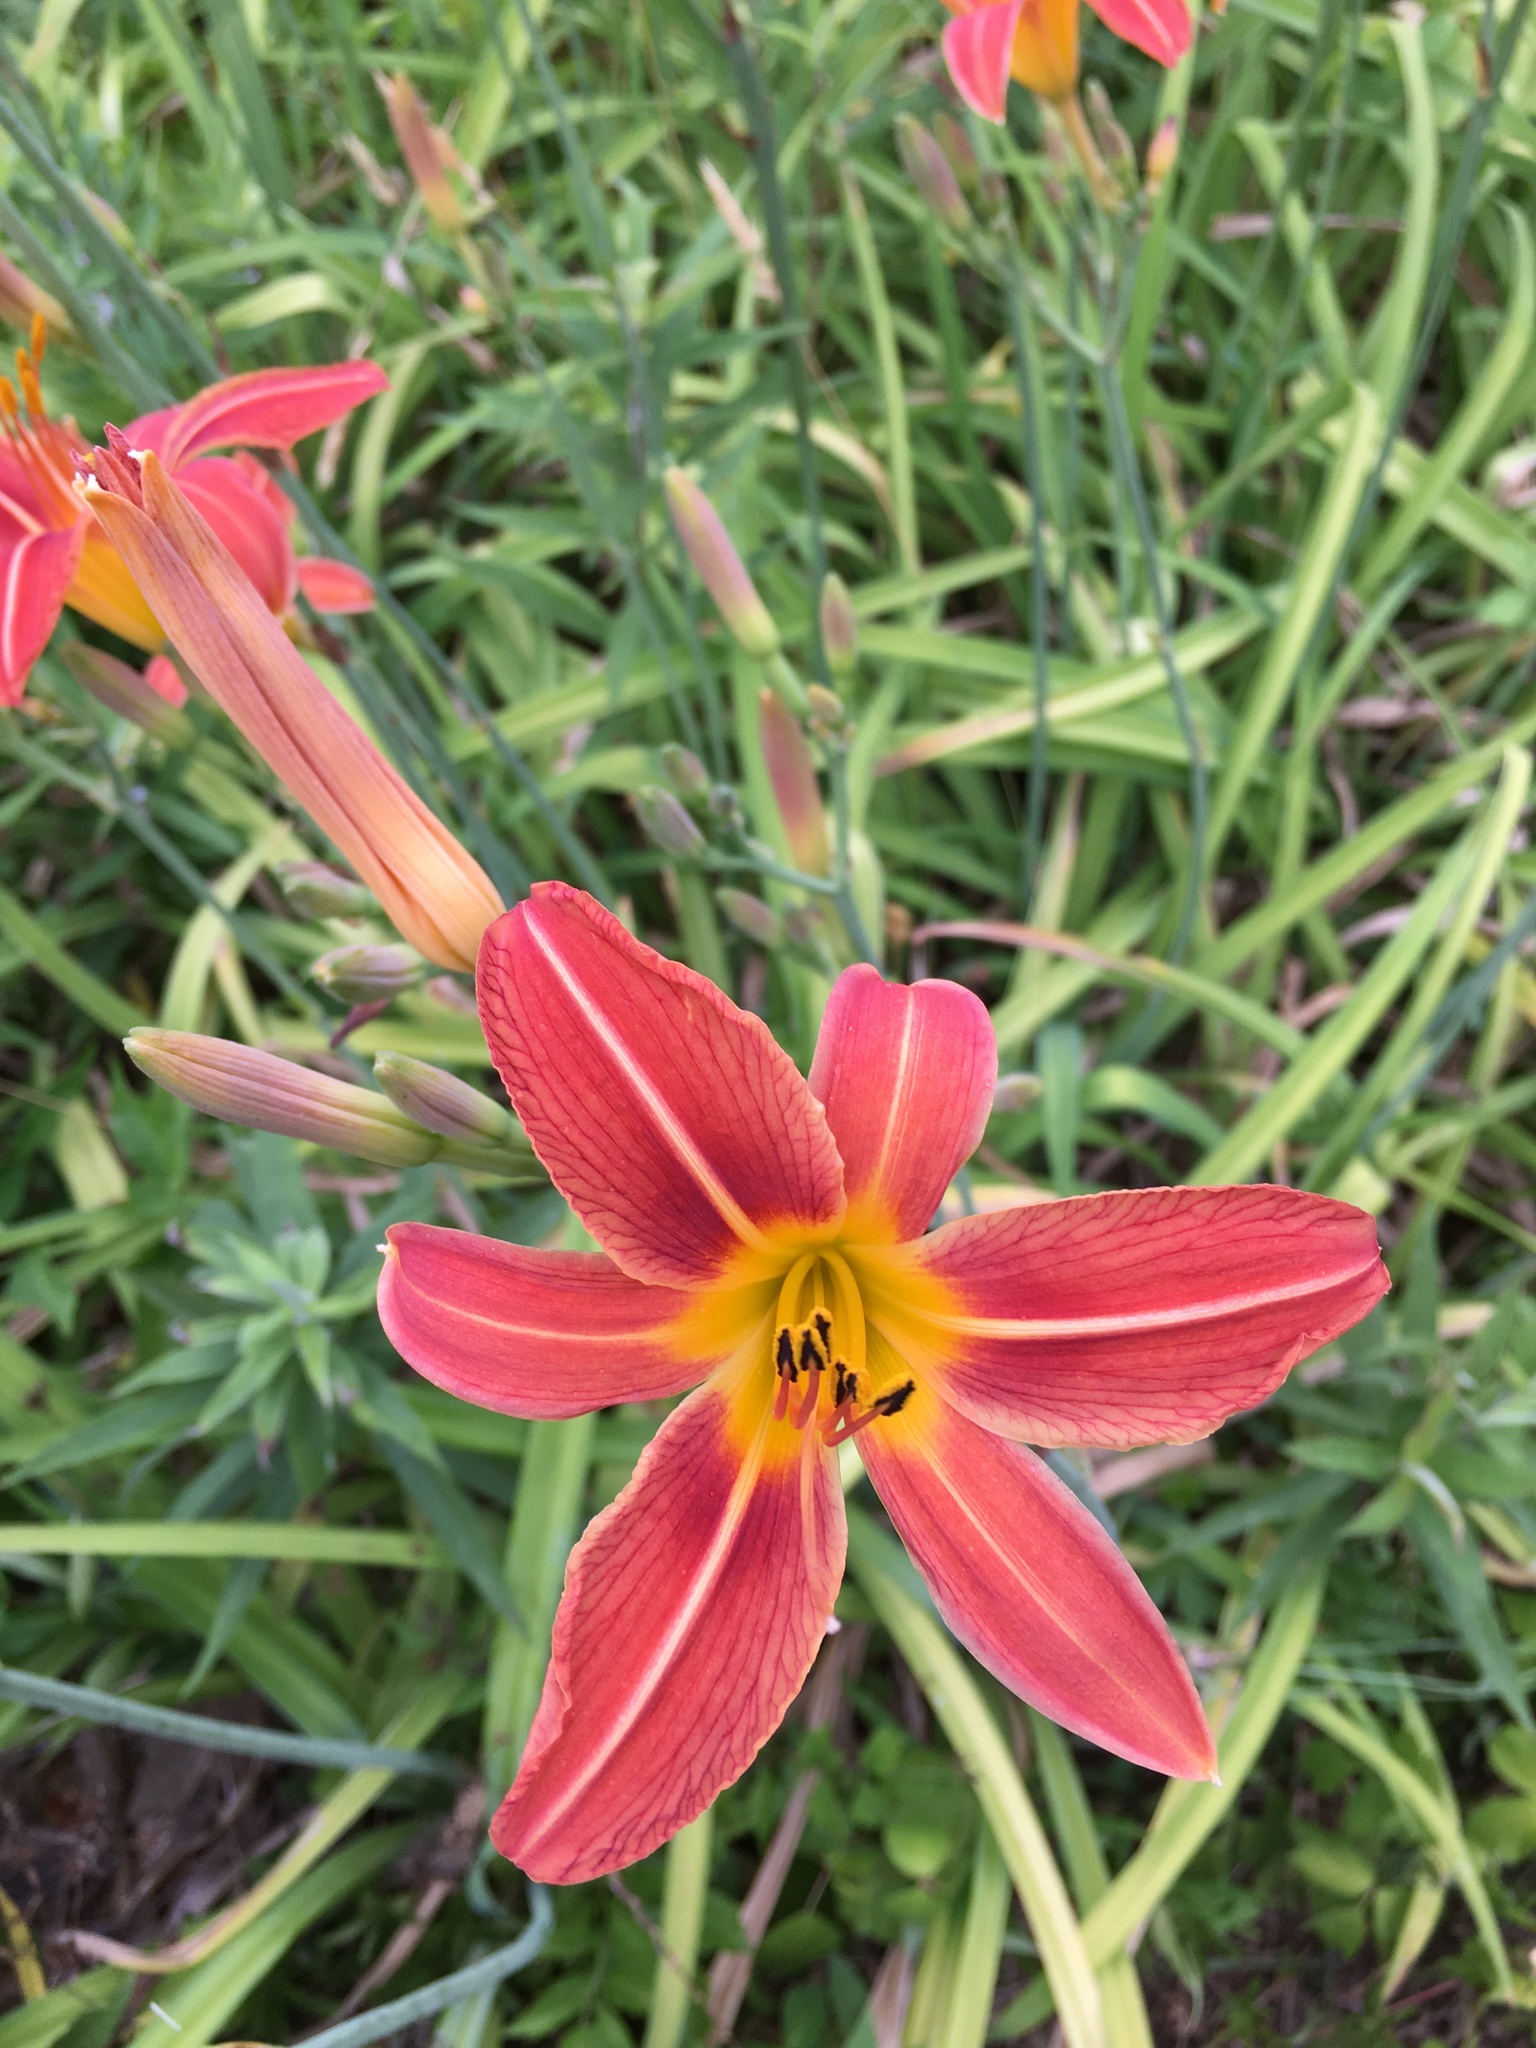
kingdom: Plantae
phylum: Tracheophyta
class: Liliopsida
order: Asparagales
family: Asphodelaceae
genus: Hemerocallis
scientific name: Hemerocallis fulva
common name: Orange day-lily
